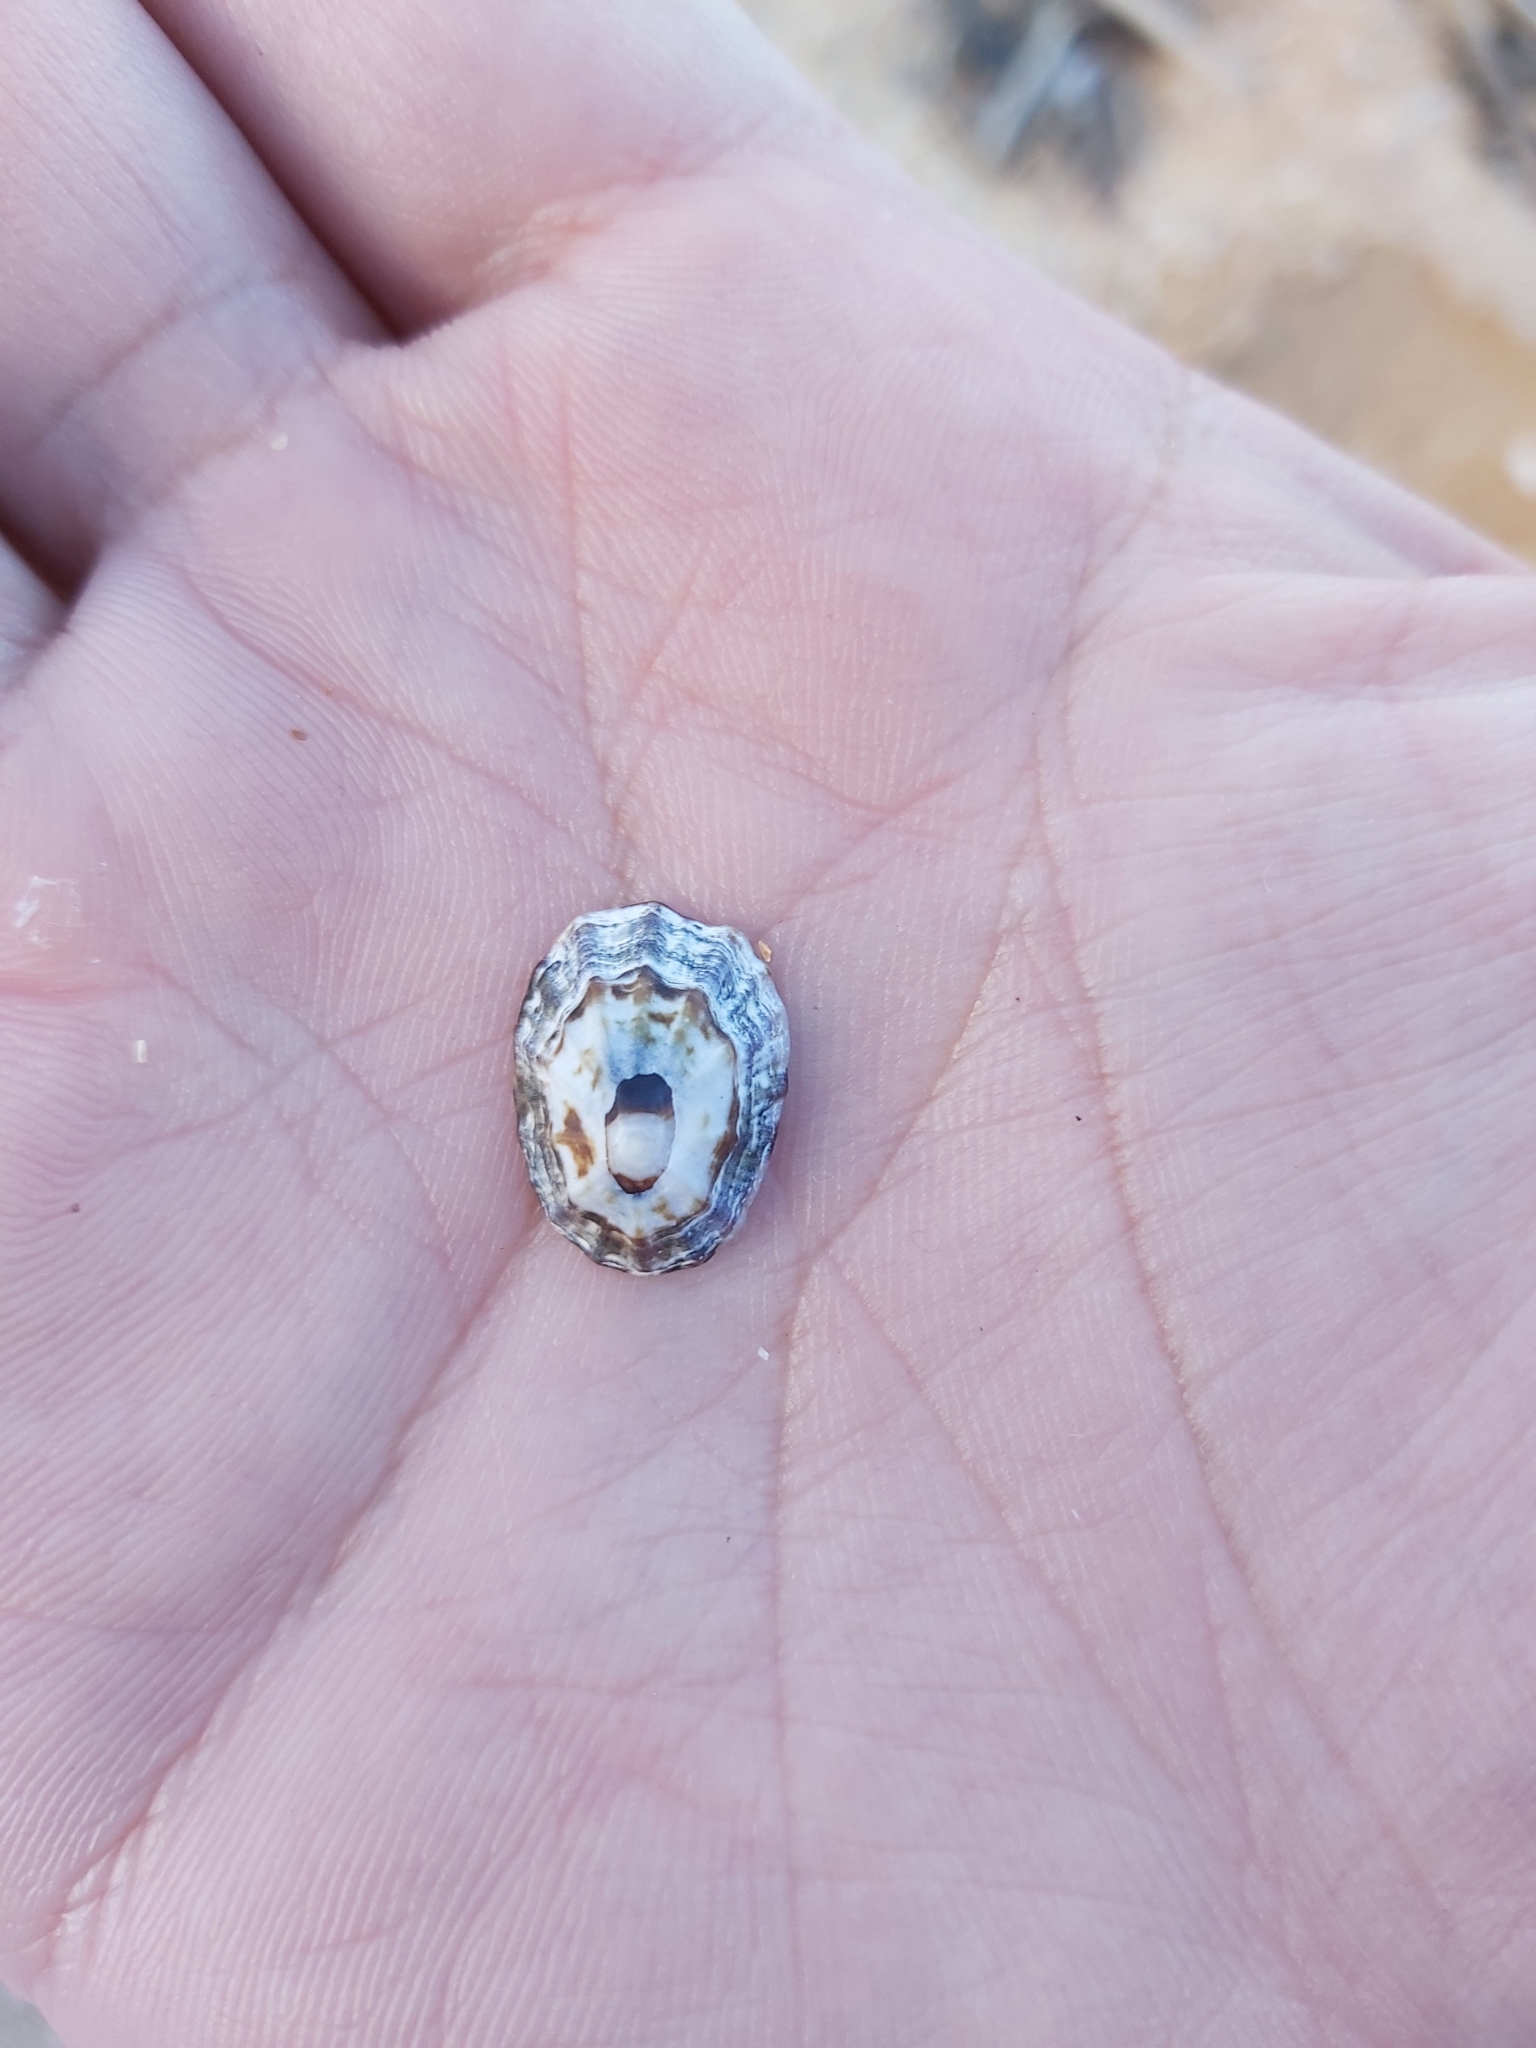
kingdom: Animalia
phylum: Mollusca
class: Gastropoda
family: Lottiidae
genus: Patelloida
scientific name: Patelloida alticostata
